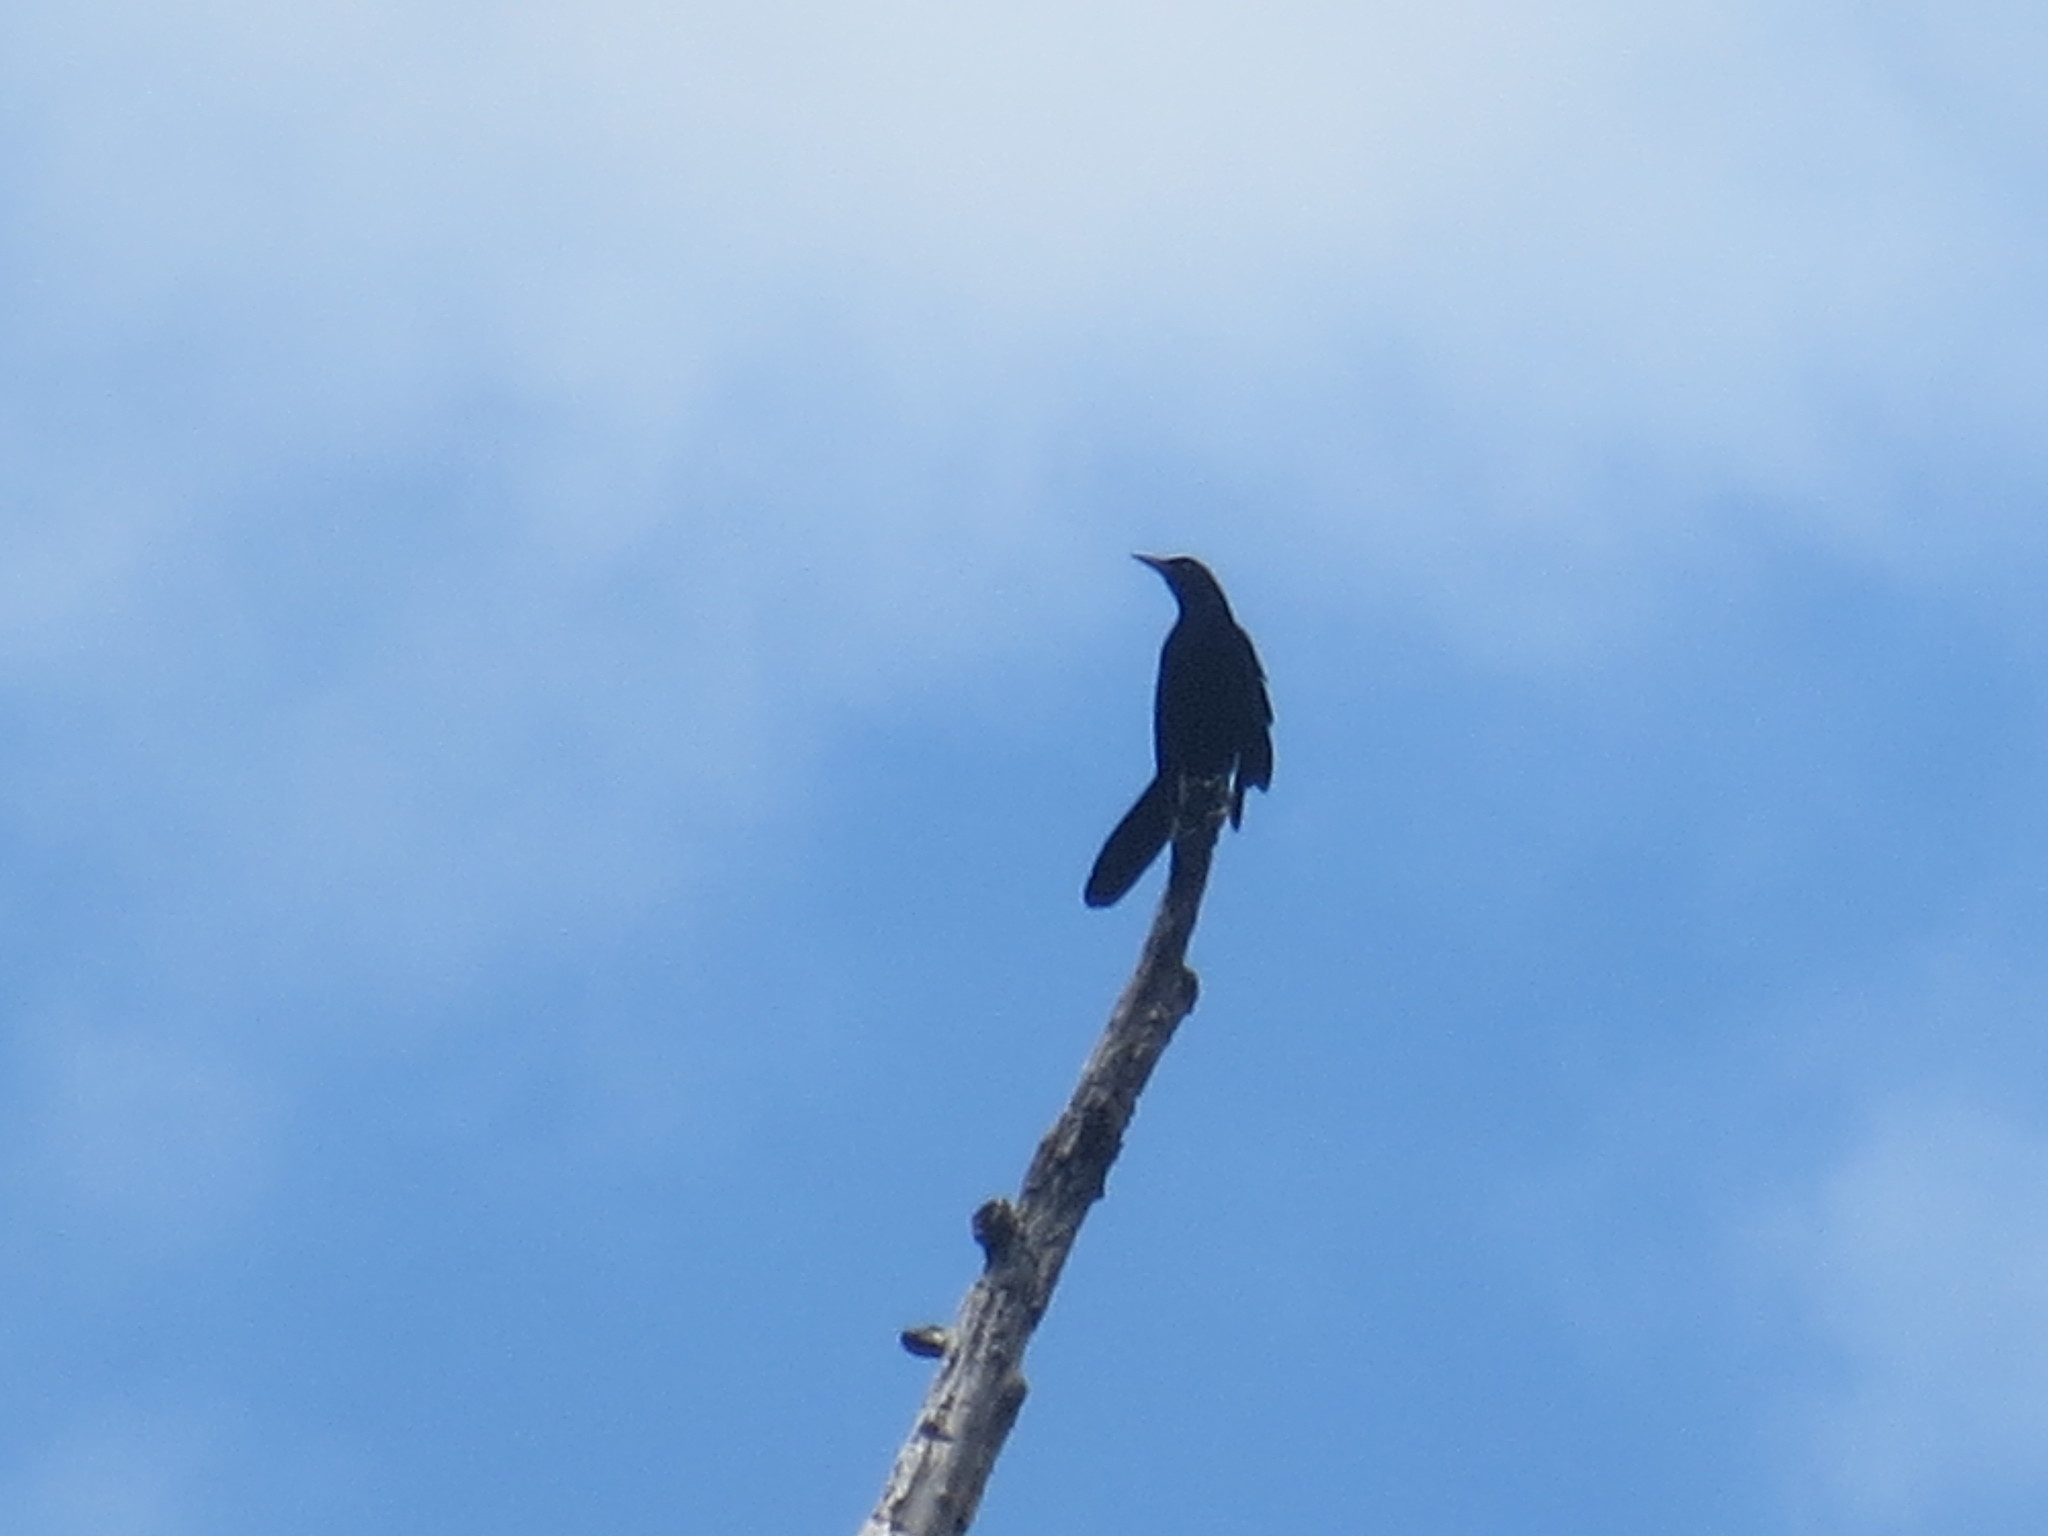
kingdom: Animalia
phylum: Chordata
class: Aves
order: Passeriformes
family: Icteridae
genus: Quiscalus
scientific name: Quiscalus major
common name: Boat-tailed grackle
